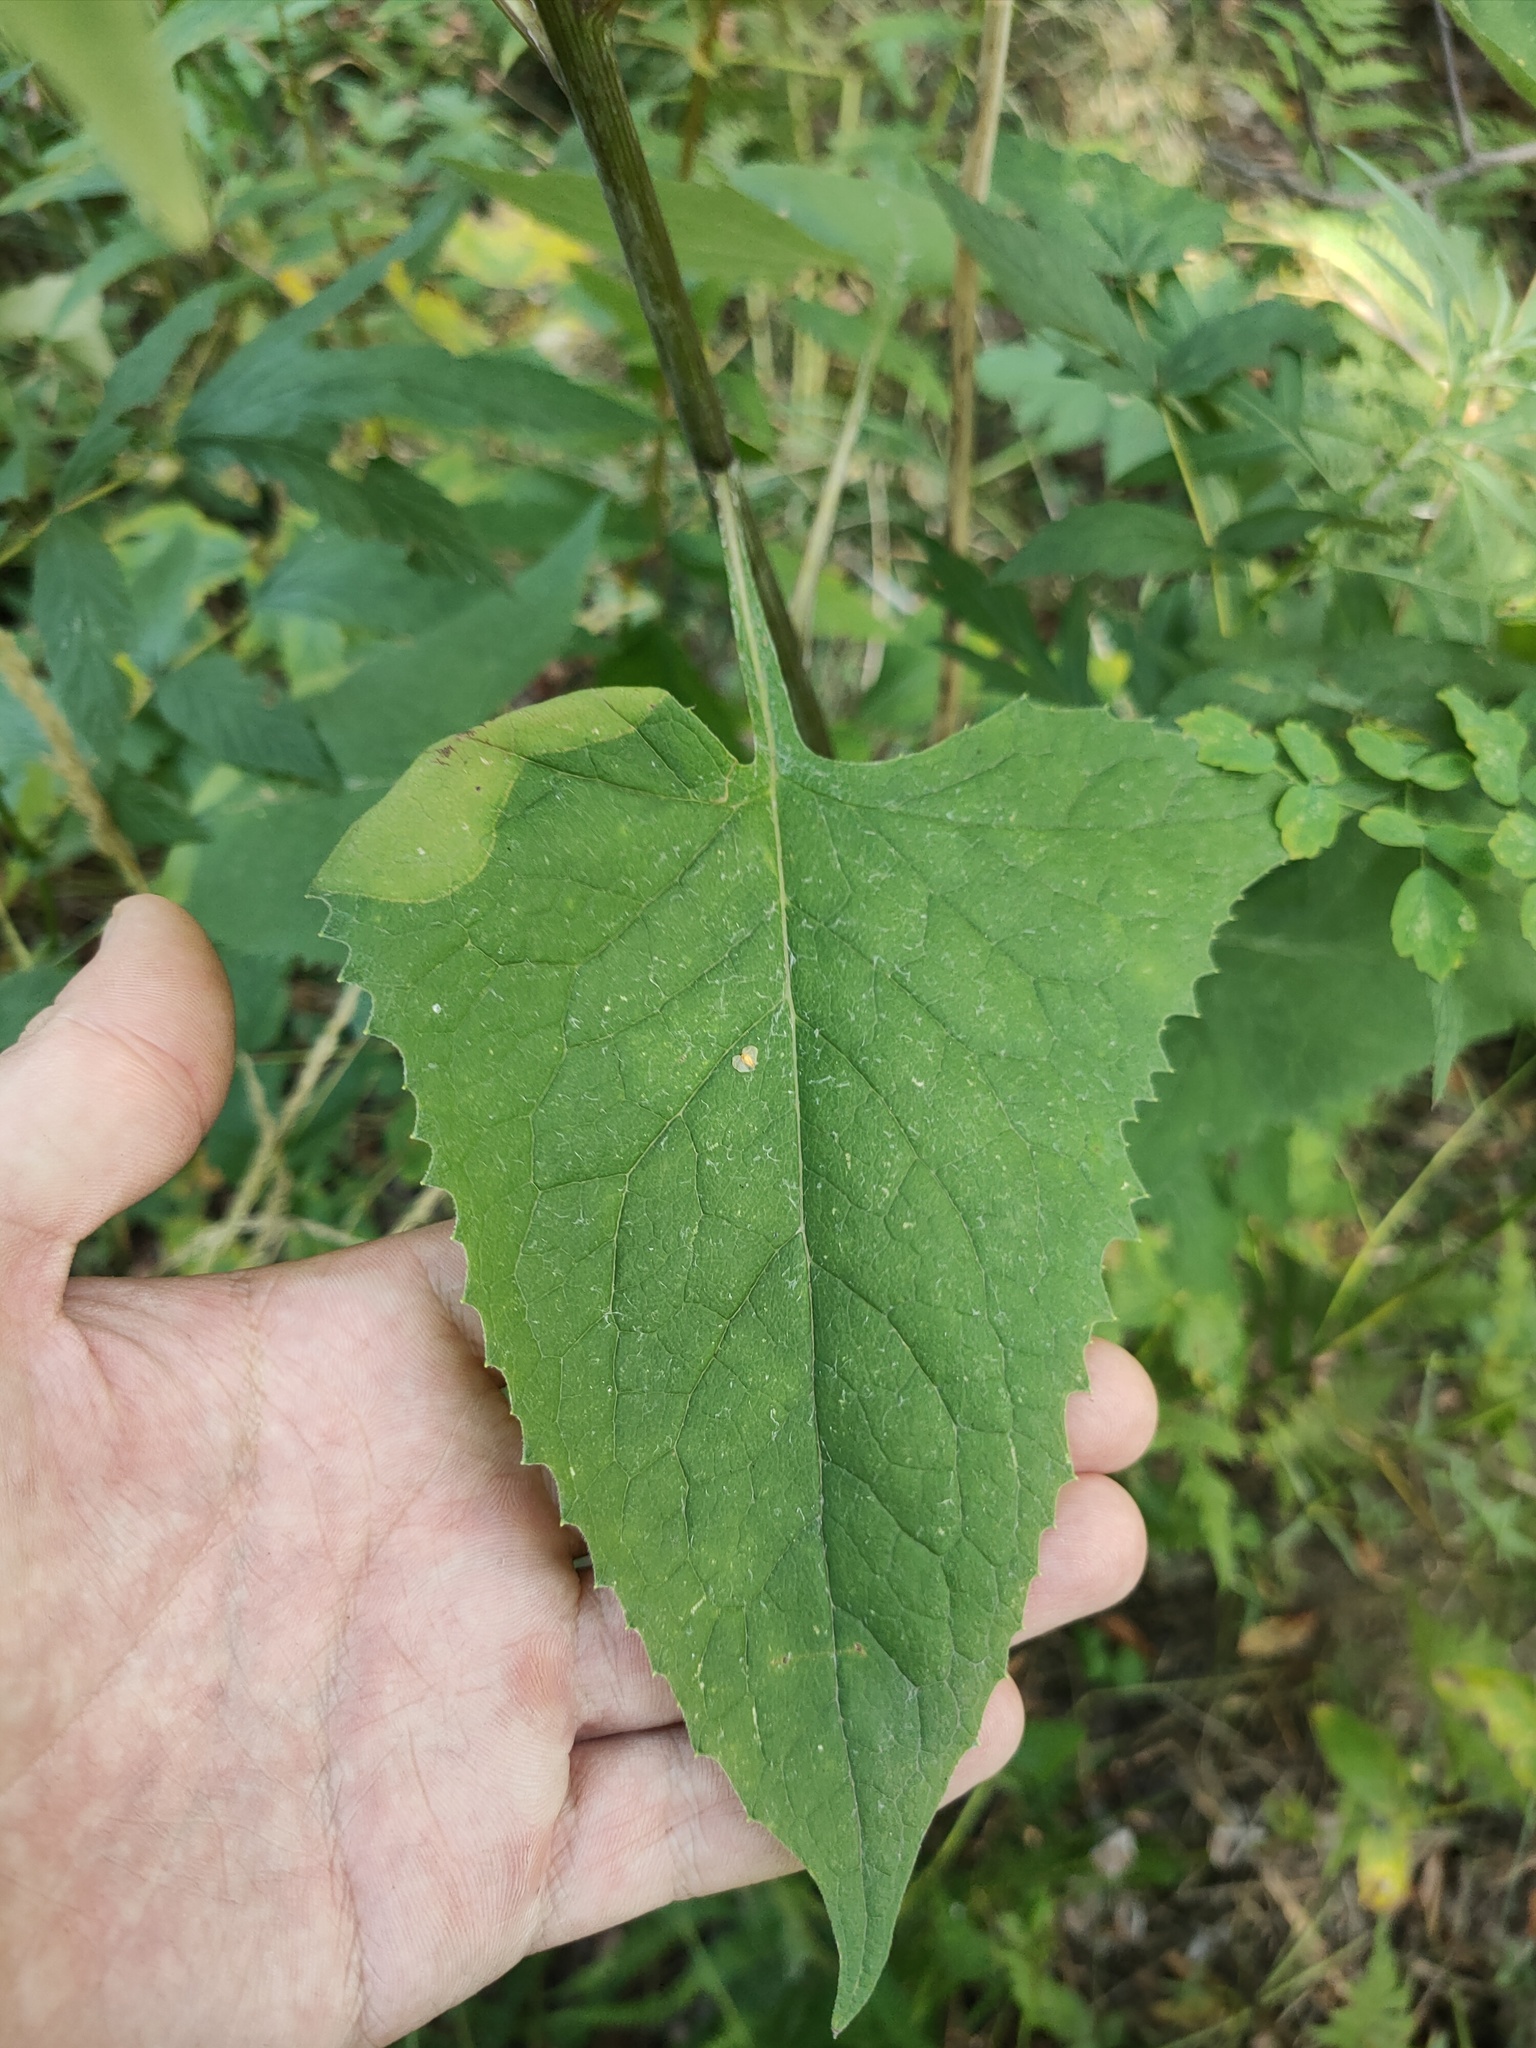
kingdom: Plantae
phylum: Tracheophyta
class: Magnoliopsida
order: Asterales
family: Asteraceae
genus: Parasenecio
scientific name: Parasenecio hastatus
